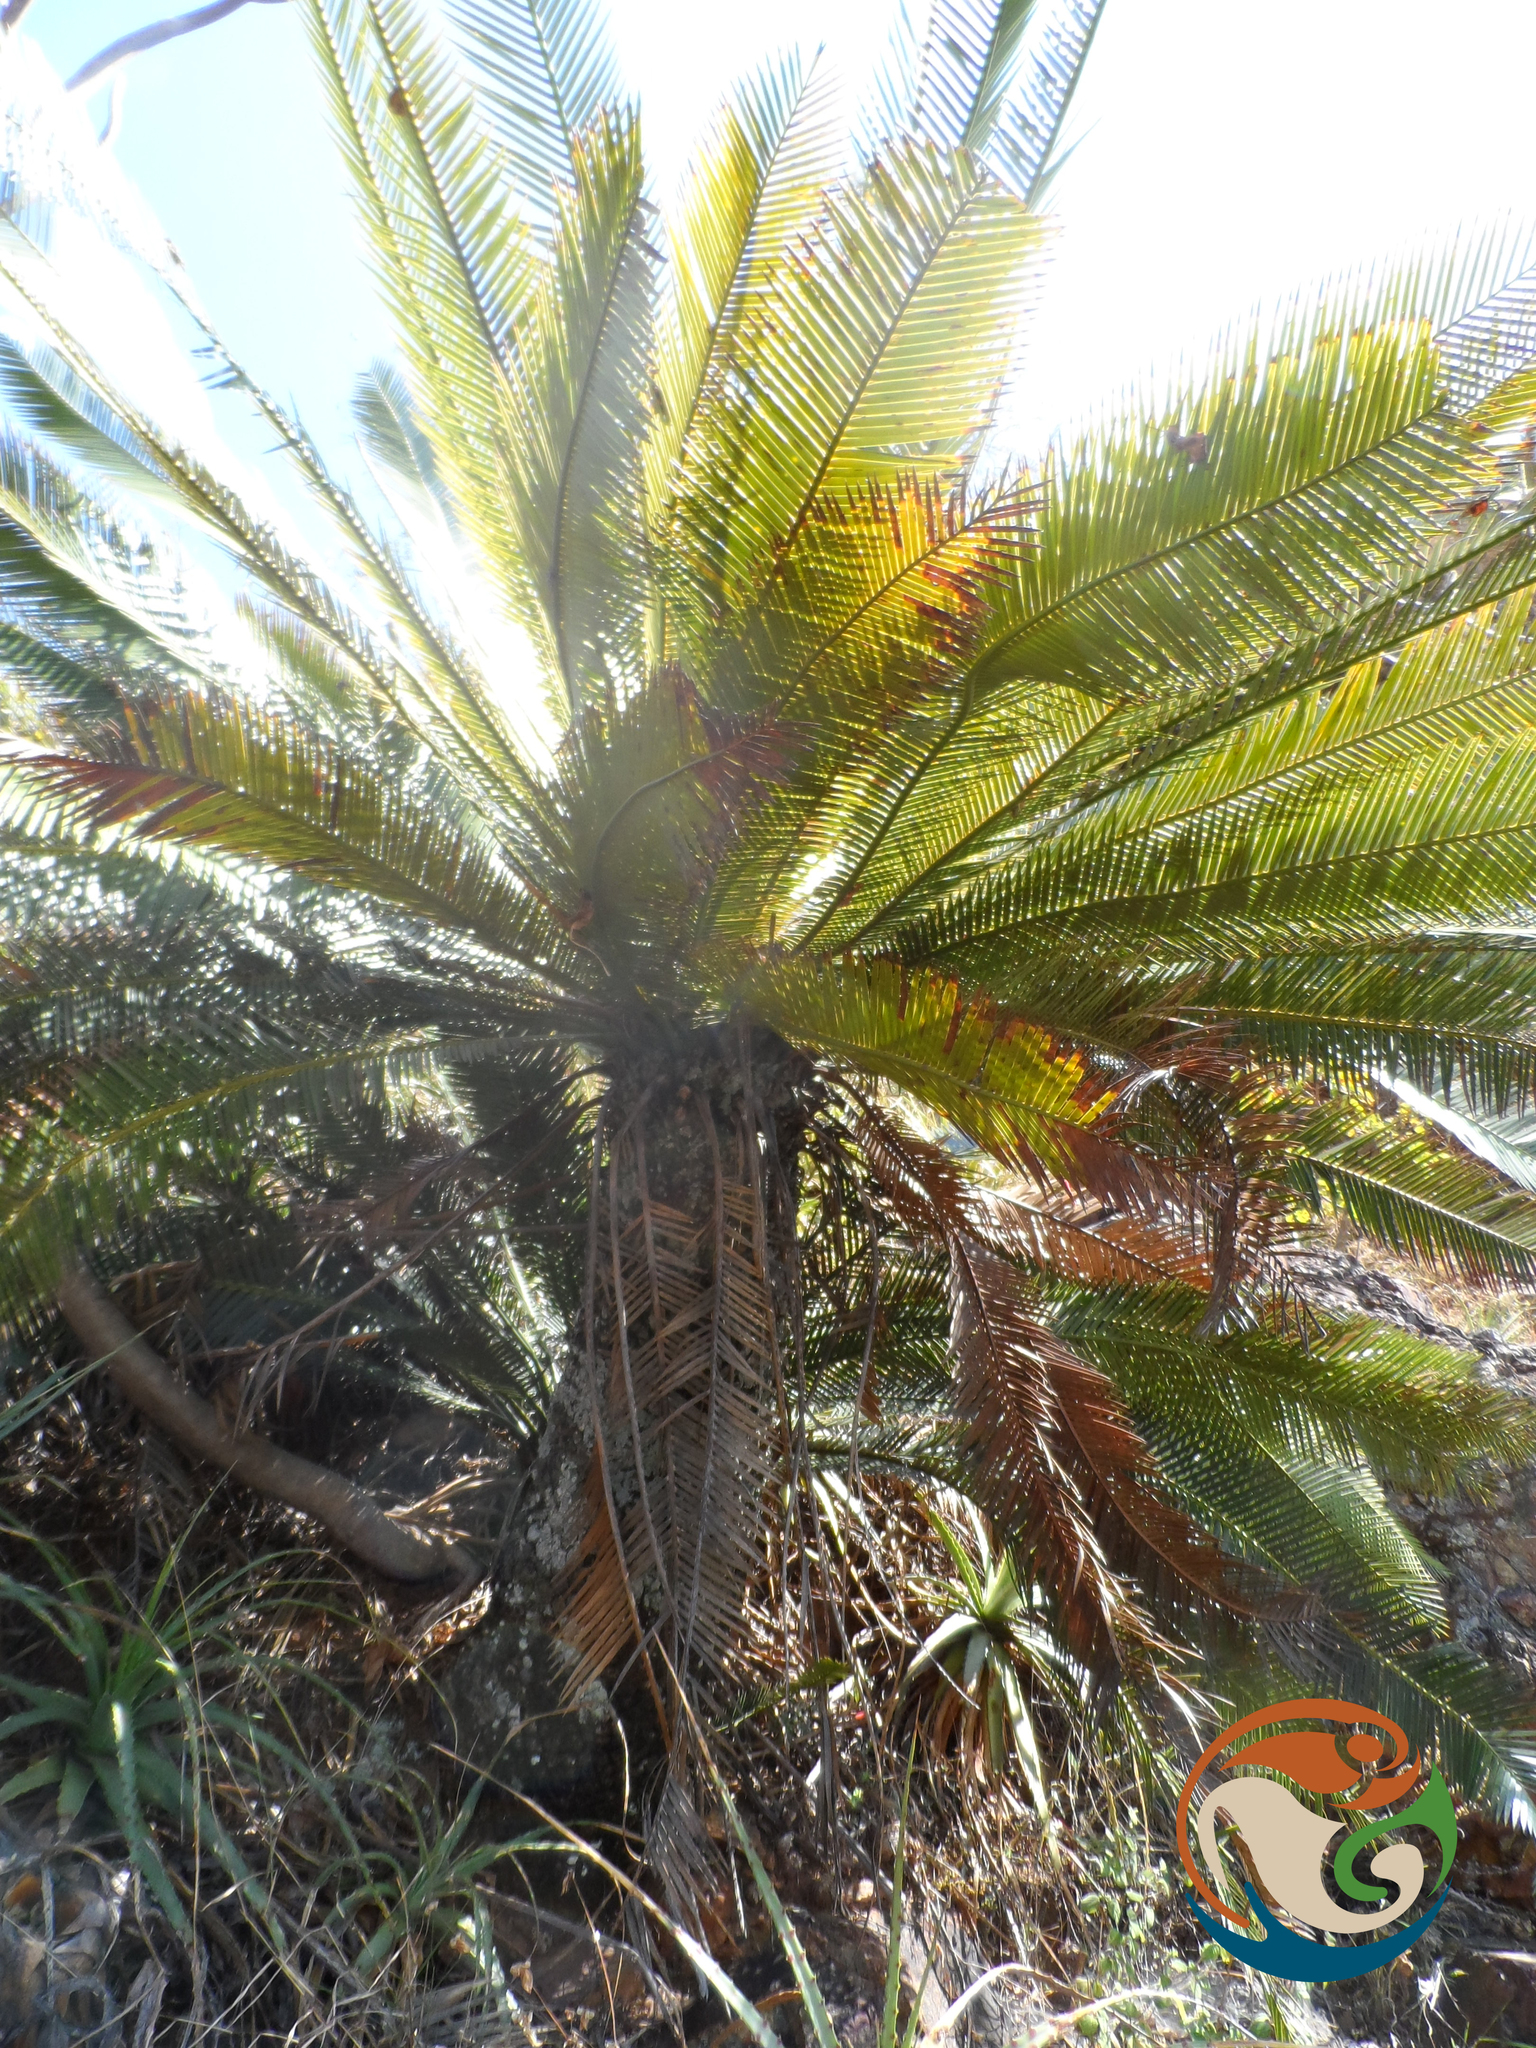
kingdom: Plantae
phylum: Tracheophyta
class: Cycadopsida
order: Cycadales
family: Zamiaceae
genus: Dioon
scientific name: Dioon planifolium
